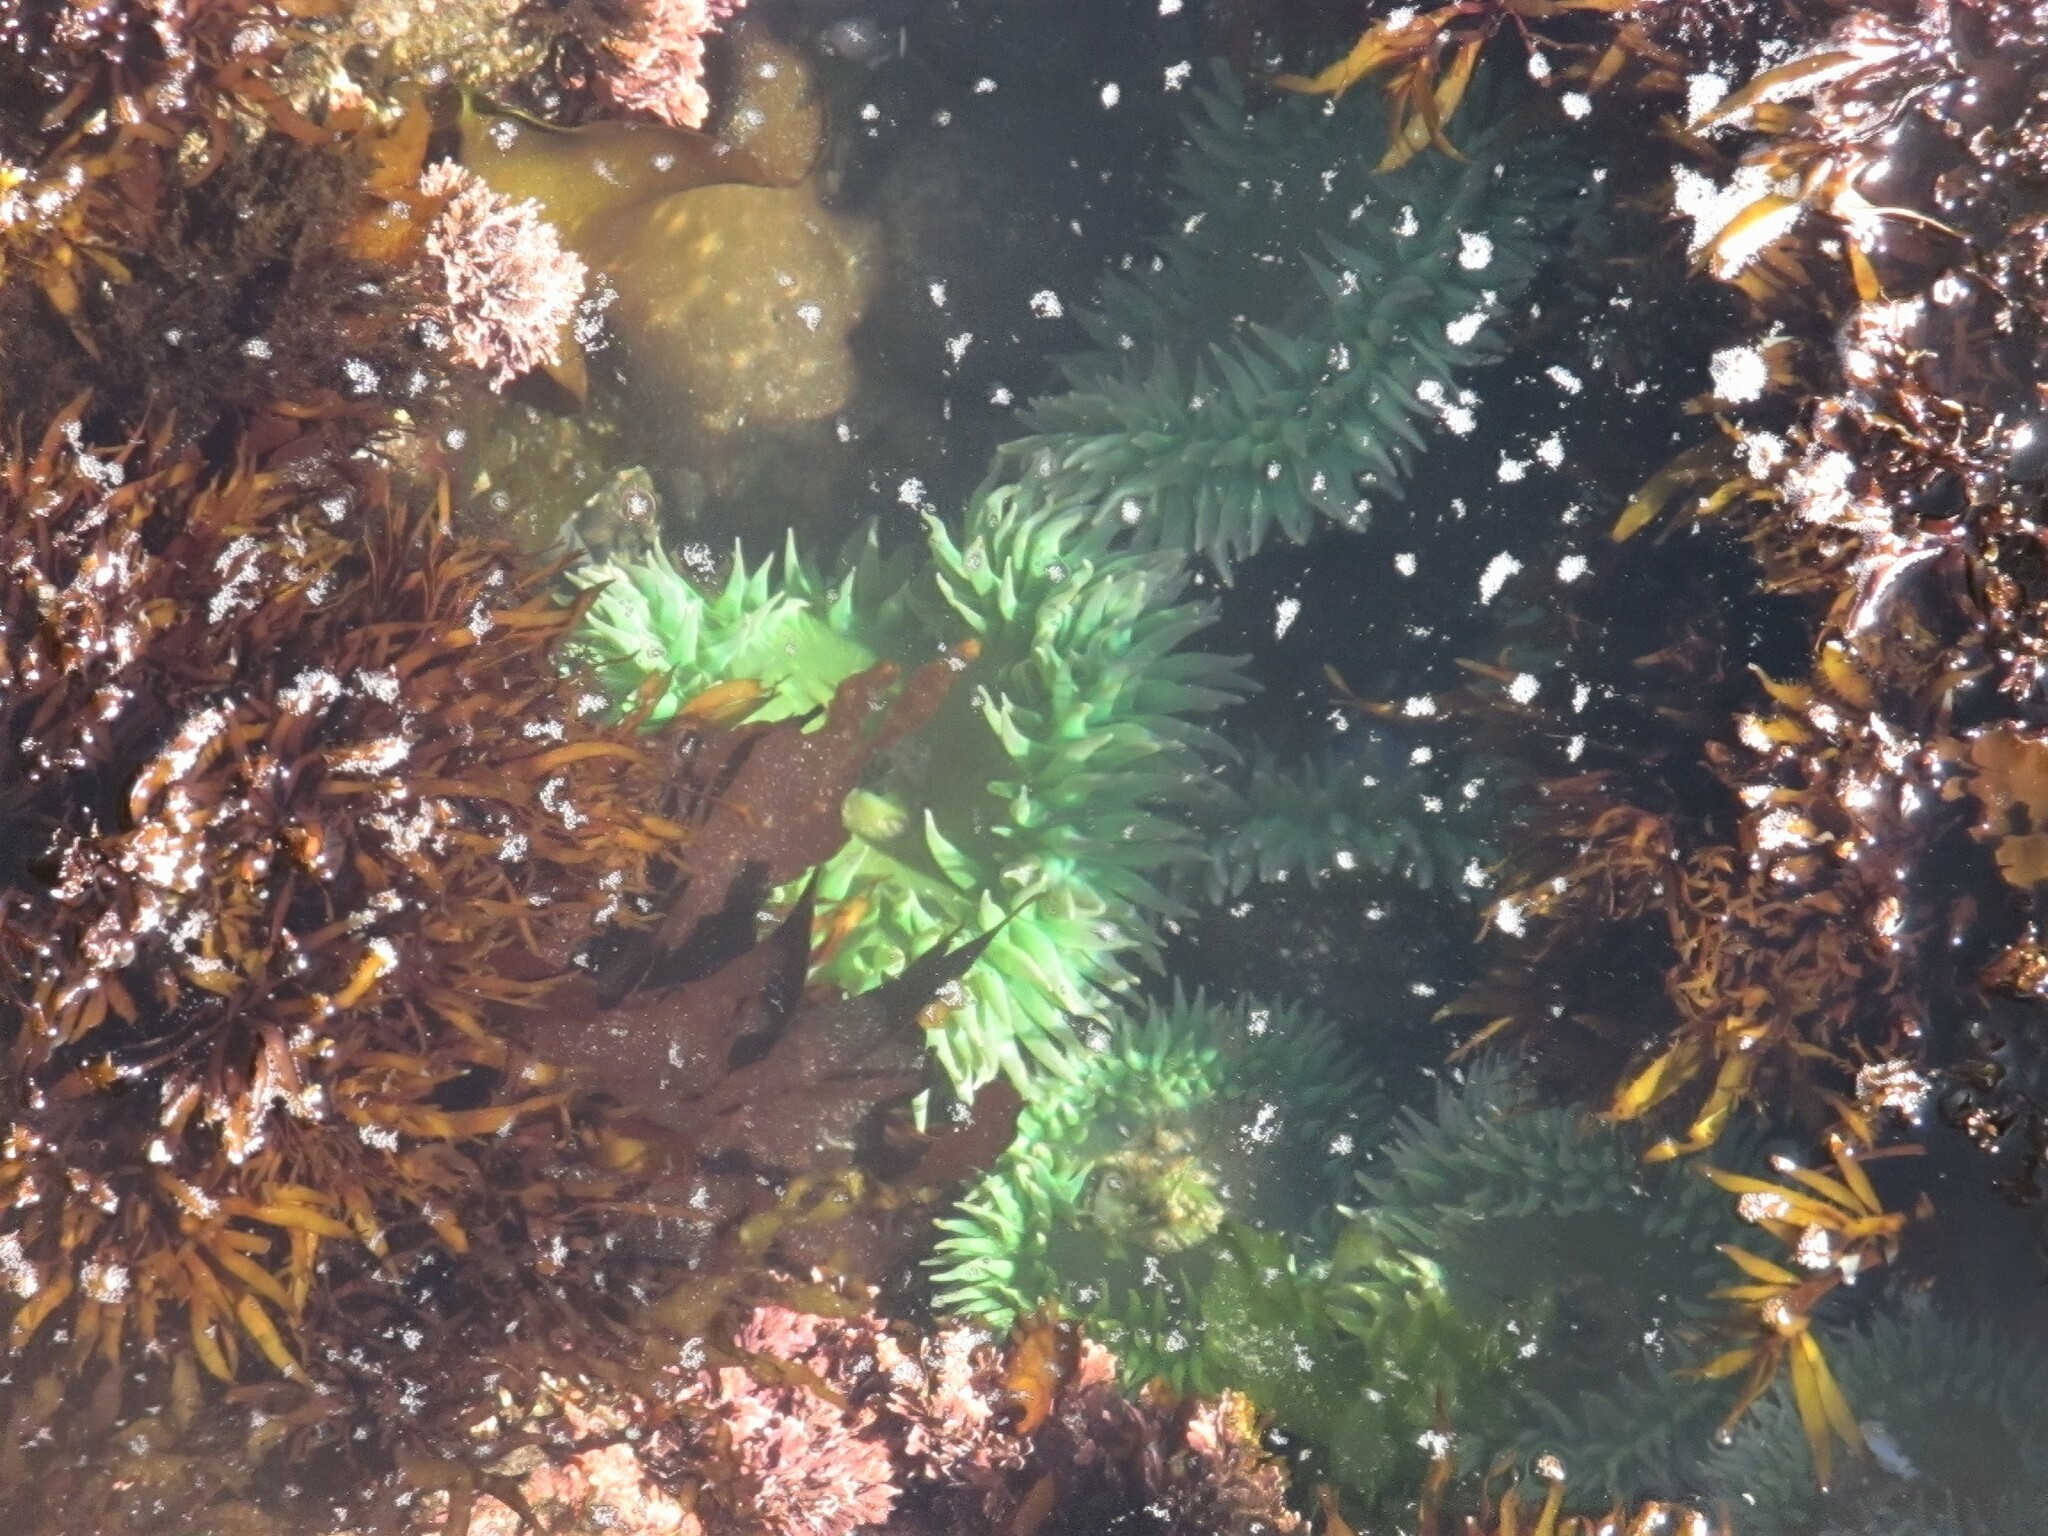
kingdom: Animalia
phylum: Cnidaria
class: Anthozoa
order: Actiniaria
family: Actiniidae
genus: Anthopleura
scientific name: Anthopleura xanthogrammica
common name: Giant green anemone
